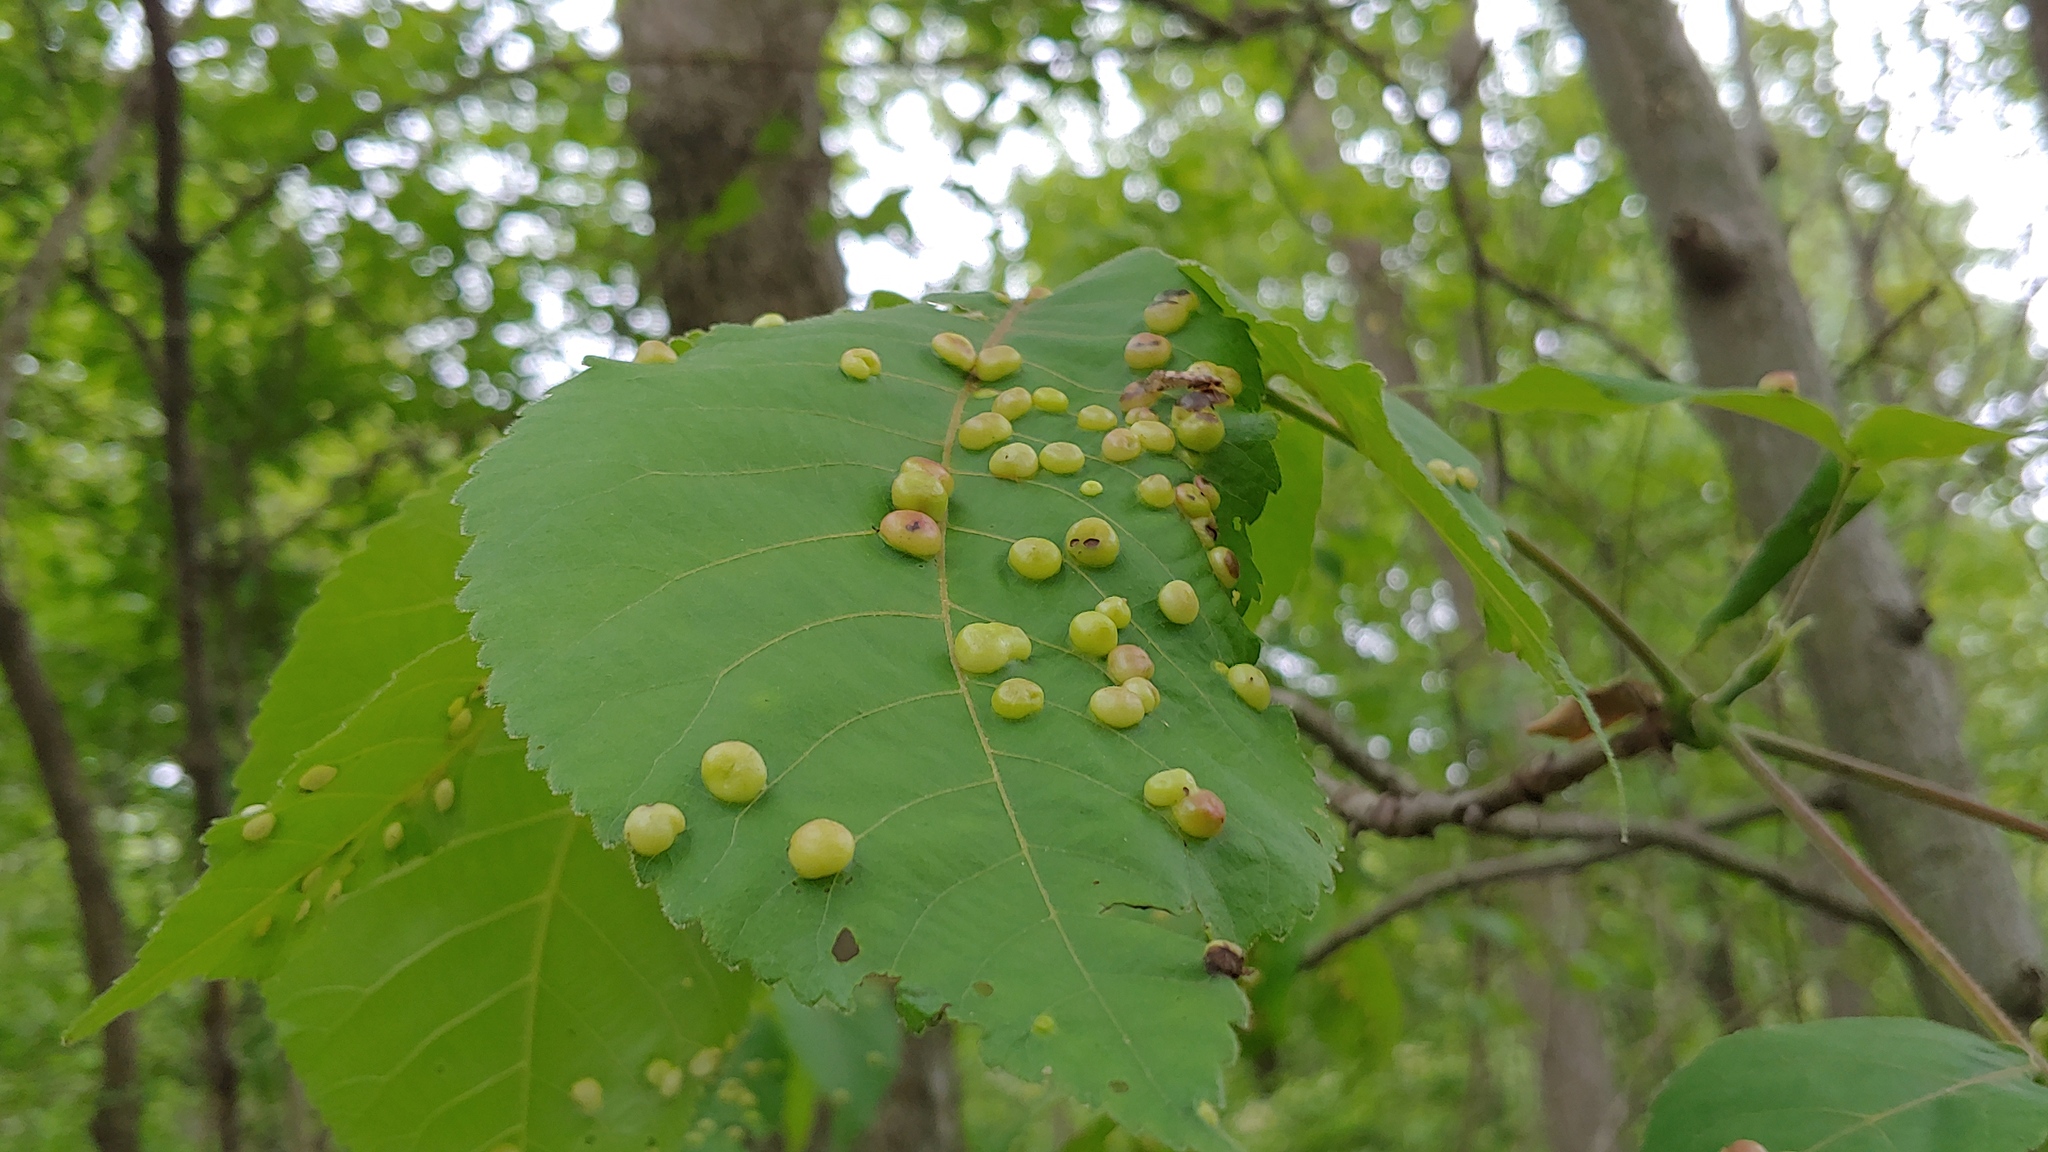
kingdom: Animalia
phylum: Arthropoda
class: Insecta
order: Hemiptera
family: Phylloxeridae
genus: Phylloxera
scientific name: Phylloxera caryae-globuli
